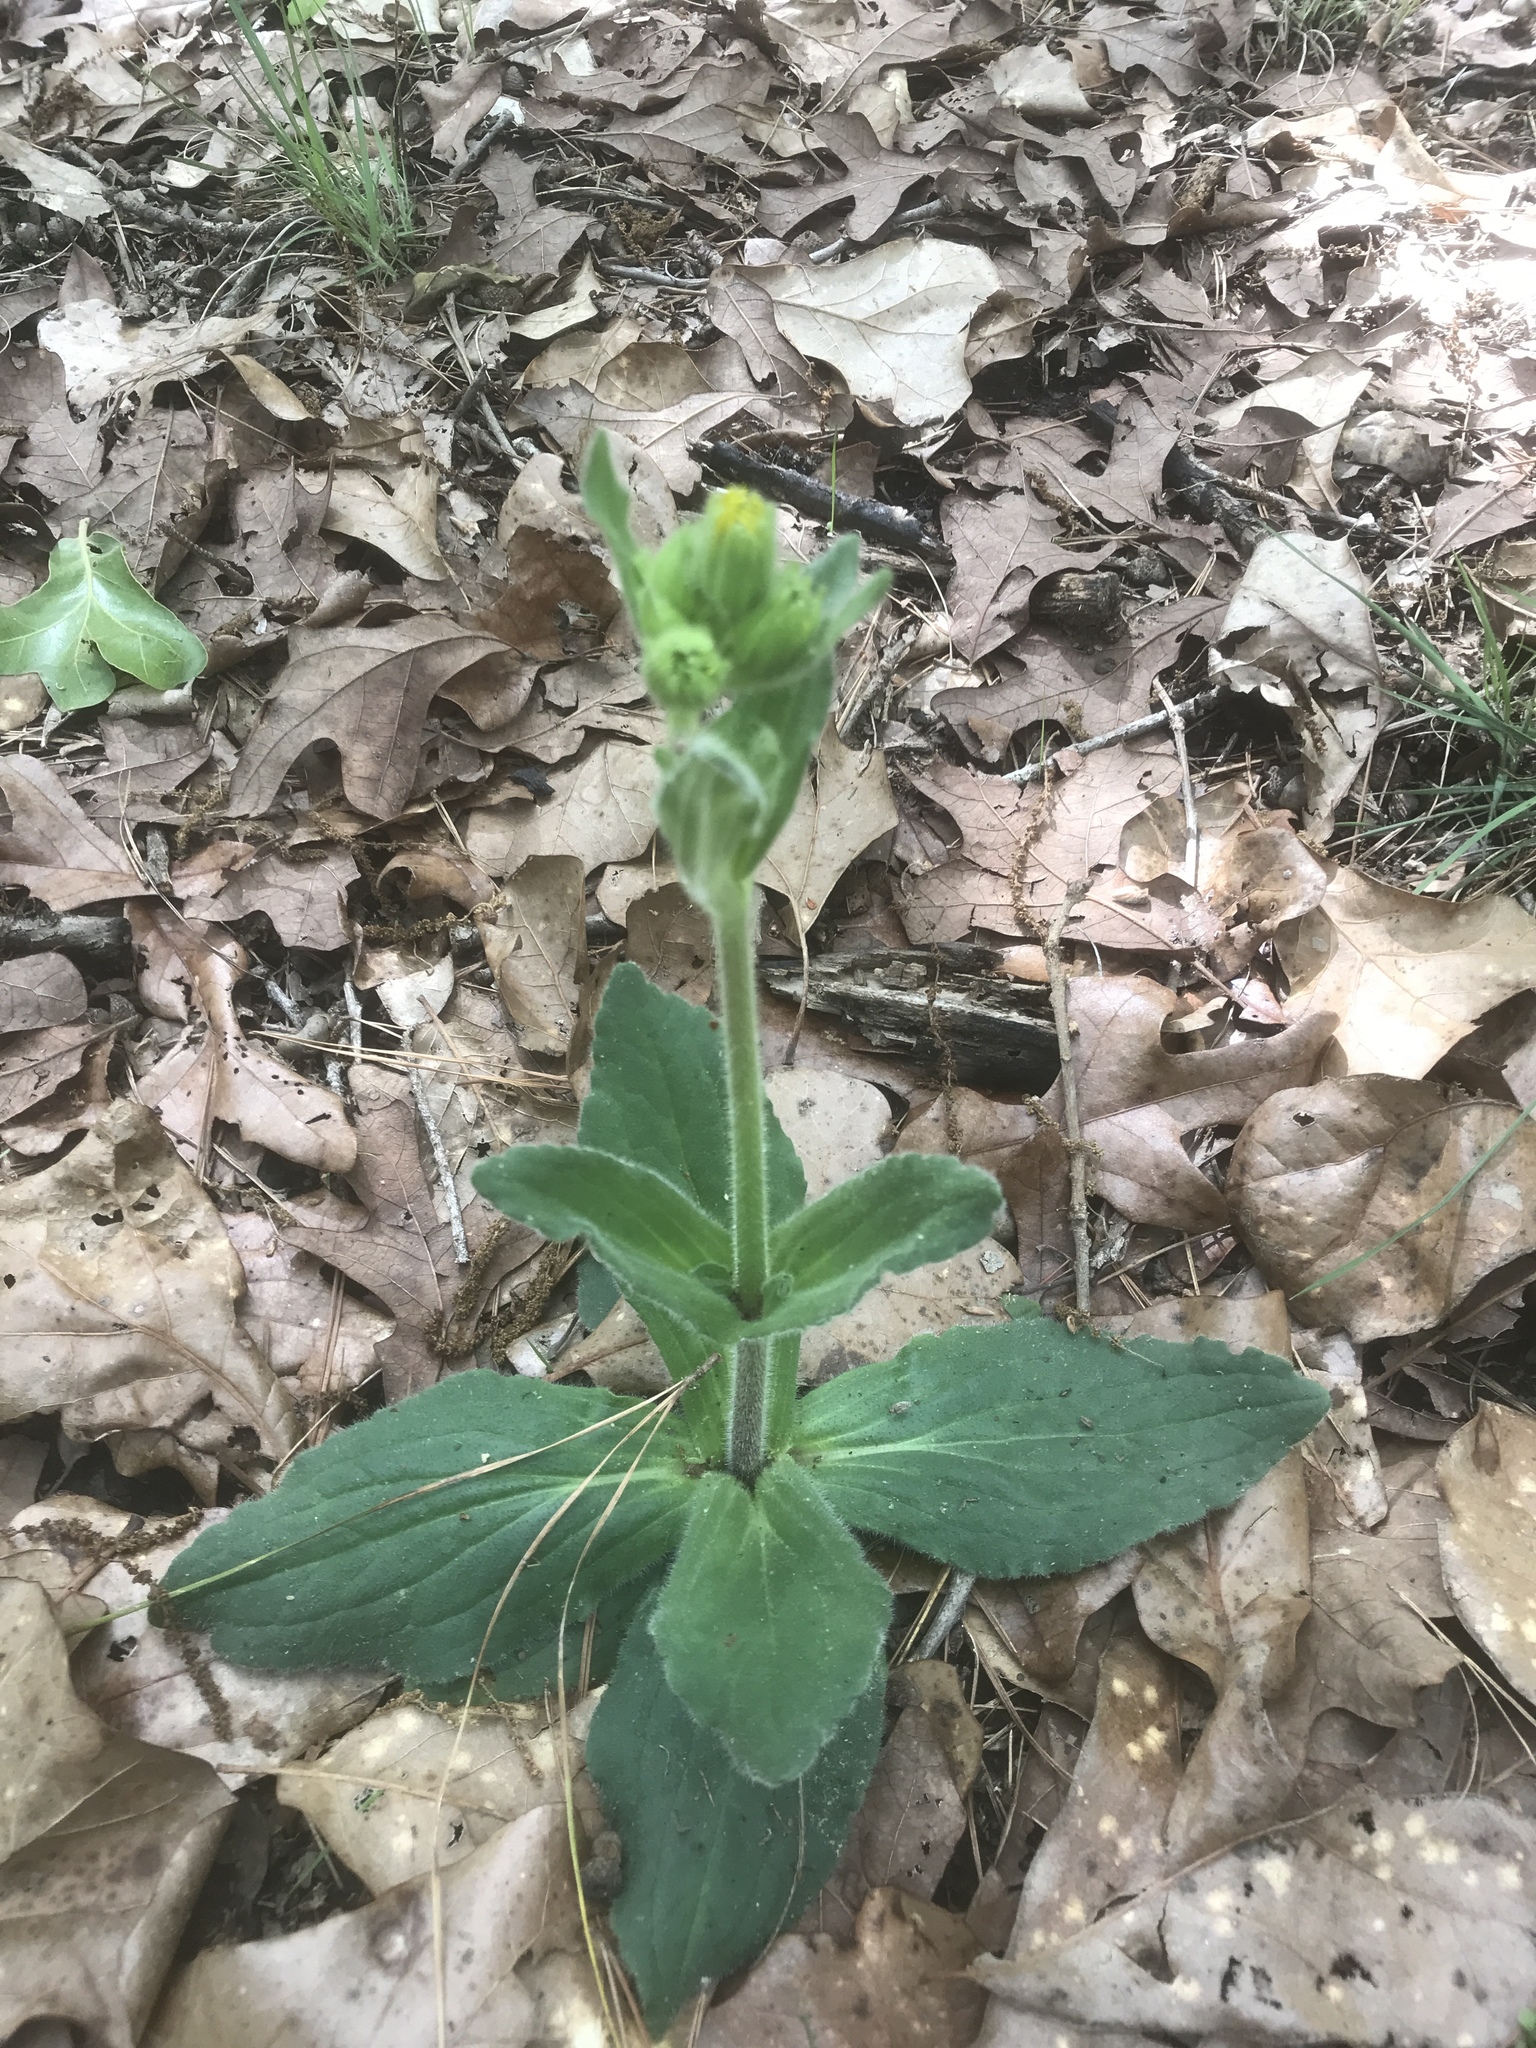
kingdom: Plantae
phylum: Tracheophyta
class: Magnoliopsida
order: Asterales
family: Asteraceae
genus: Arnica
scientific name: Arnica acaulis
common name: Common leopardbane
